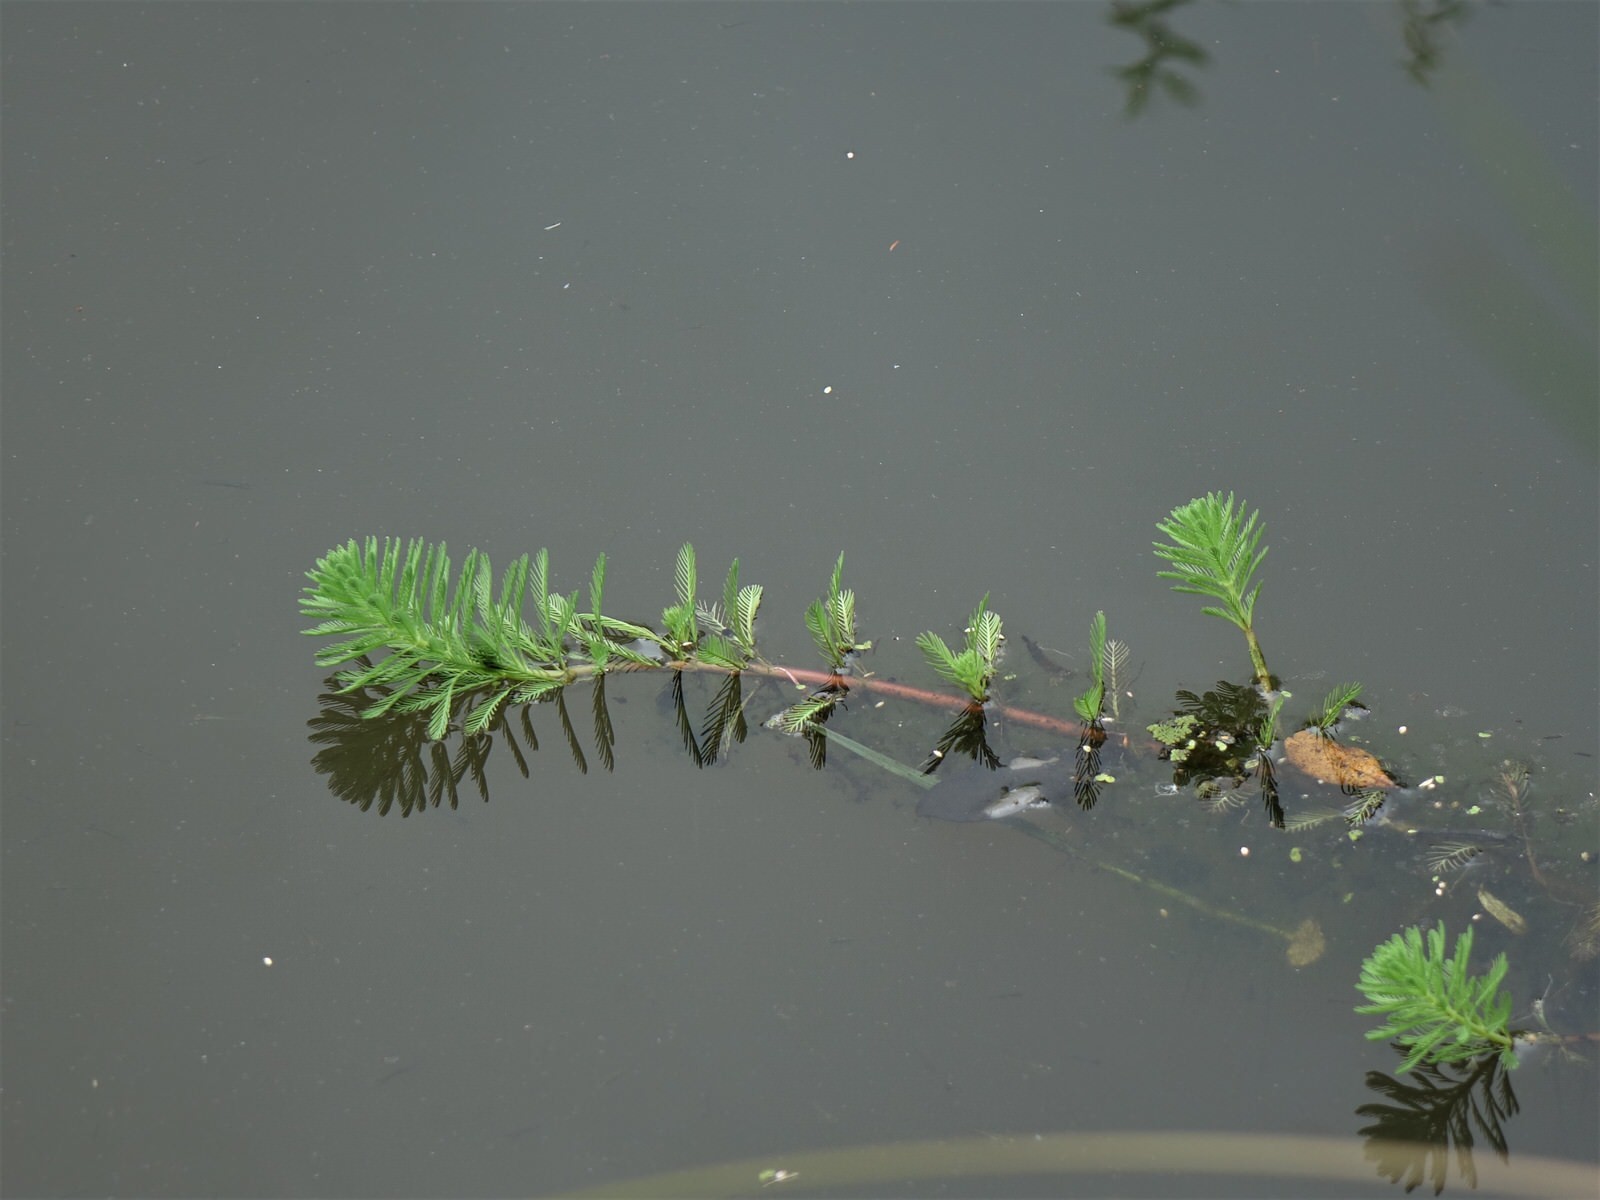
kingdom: Plantae
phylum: Tracheophyta
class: Magnoliopsida
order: Saxifragales
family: Haloragaceae
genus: Myriophyllum
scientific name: Myriophyllum aquaticum
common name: Parrot's feather
